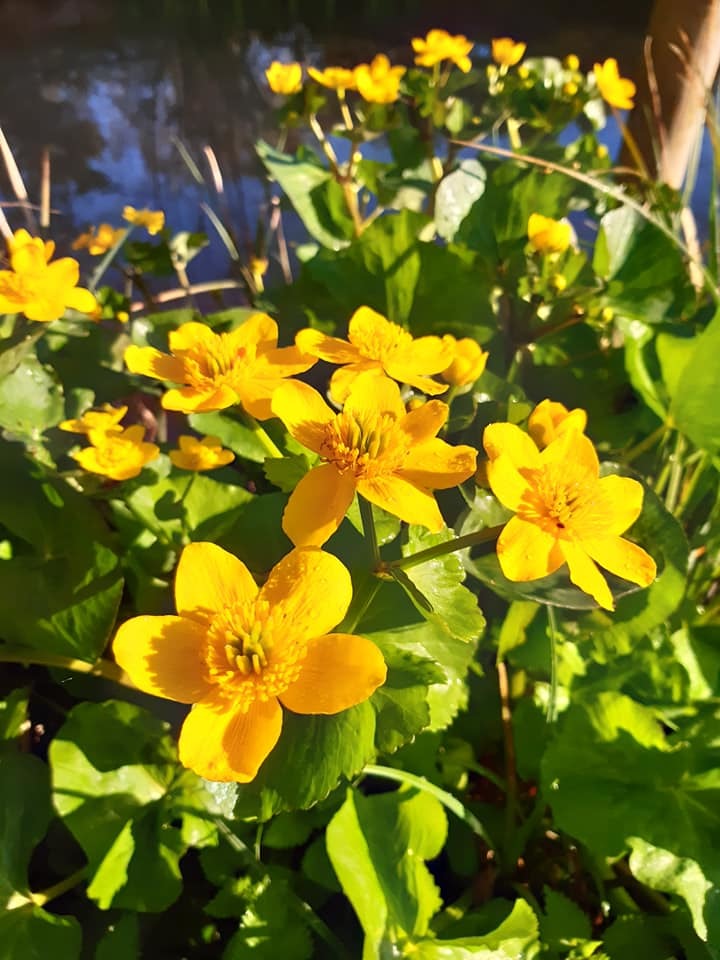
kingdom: Plantae
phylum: Tracheophyta
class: Magnoliopsida
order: Ranunculales
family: Ranunculaceae
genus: Caltha
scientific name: Caltha palustris
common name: Marsh marigold
